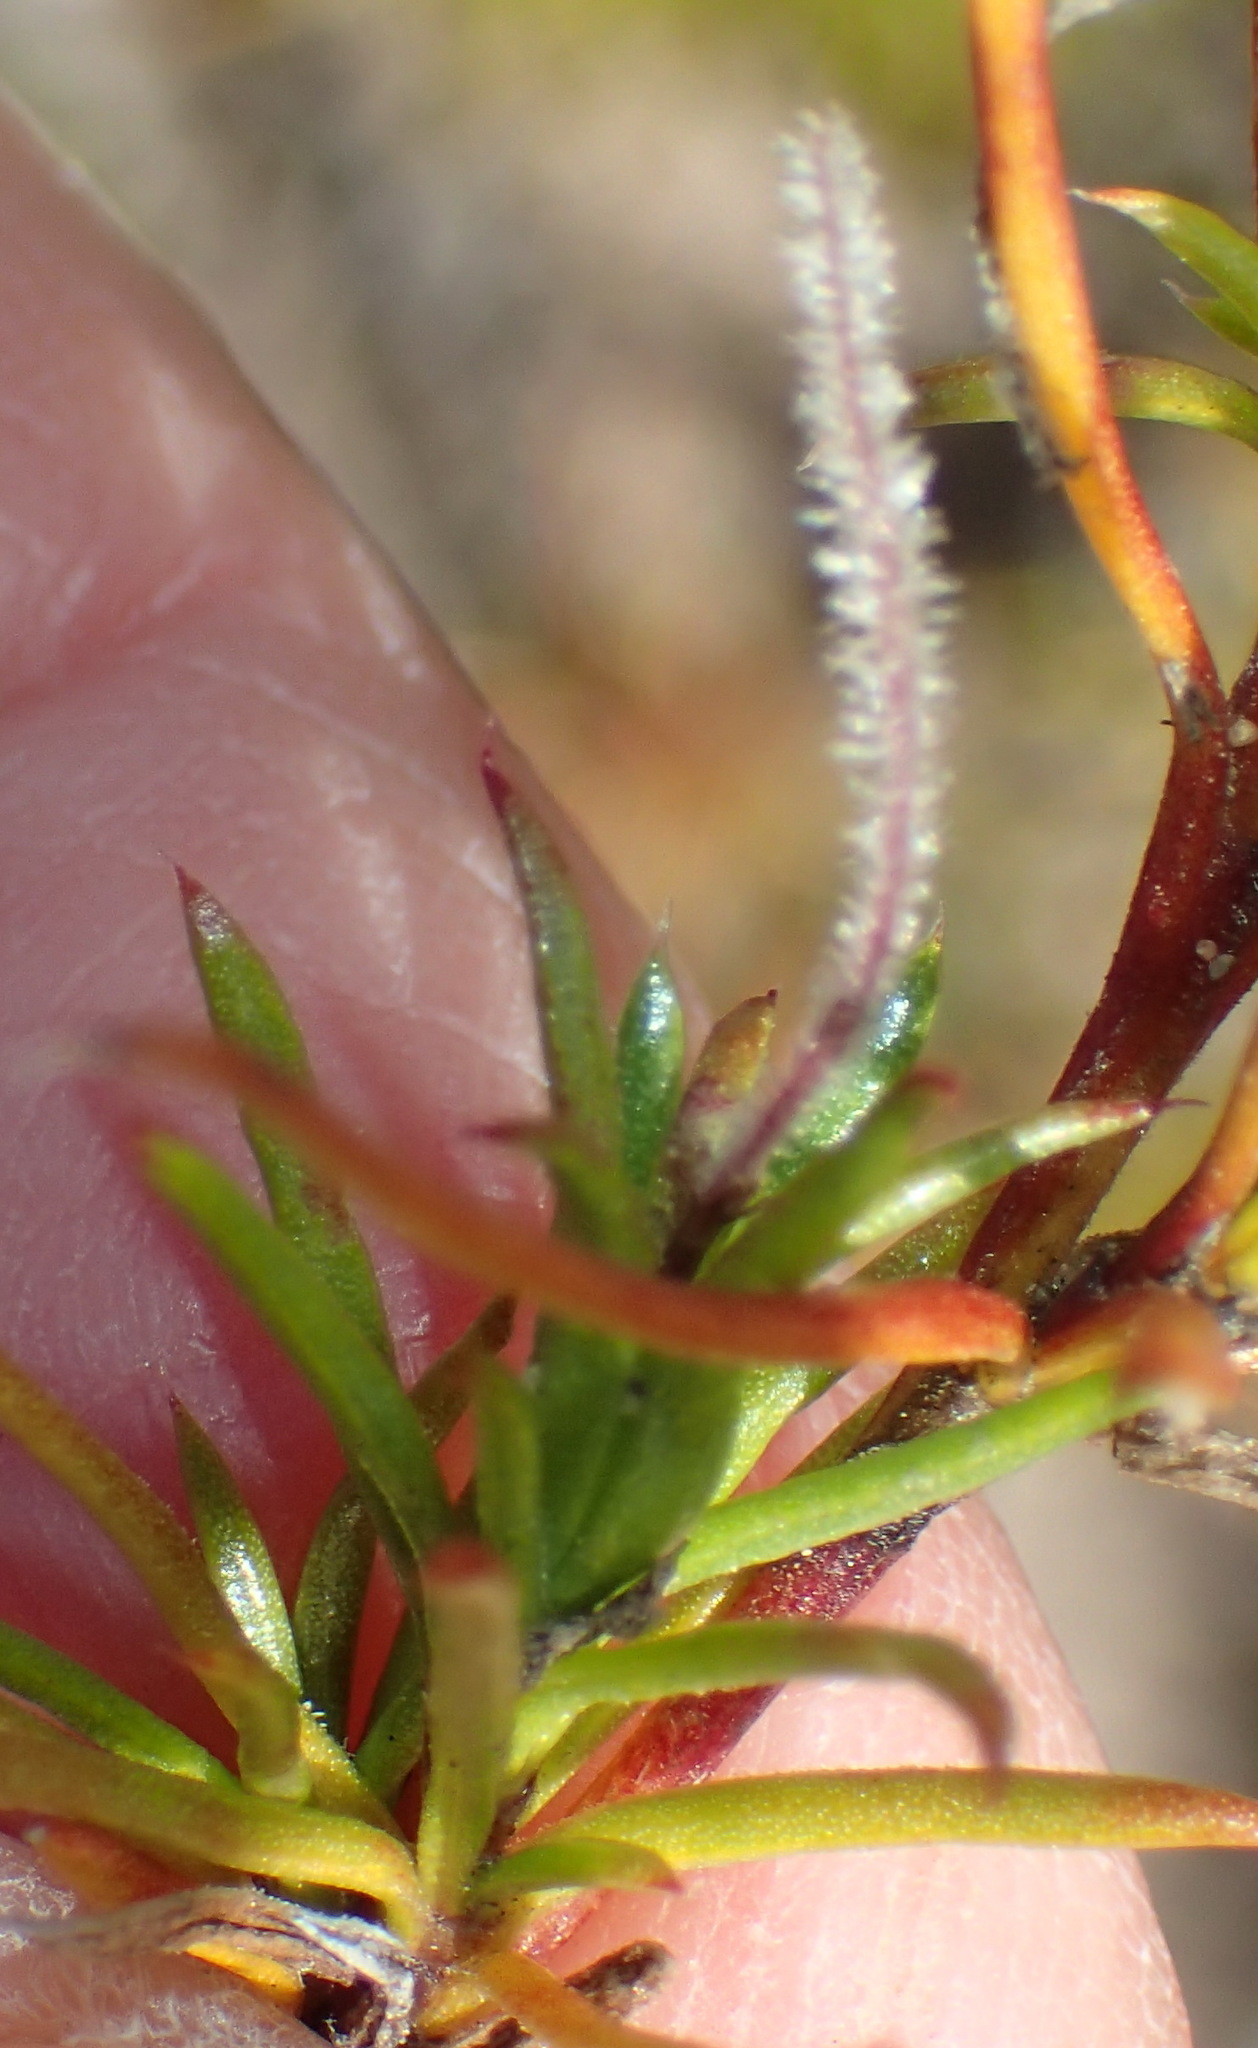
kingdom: Plantae
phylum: Tracheophyta
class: Magnoliopsida
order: Gentianales
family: Rubiaceae
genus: Carpacoce
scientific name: Carpacoce spermacocea
